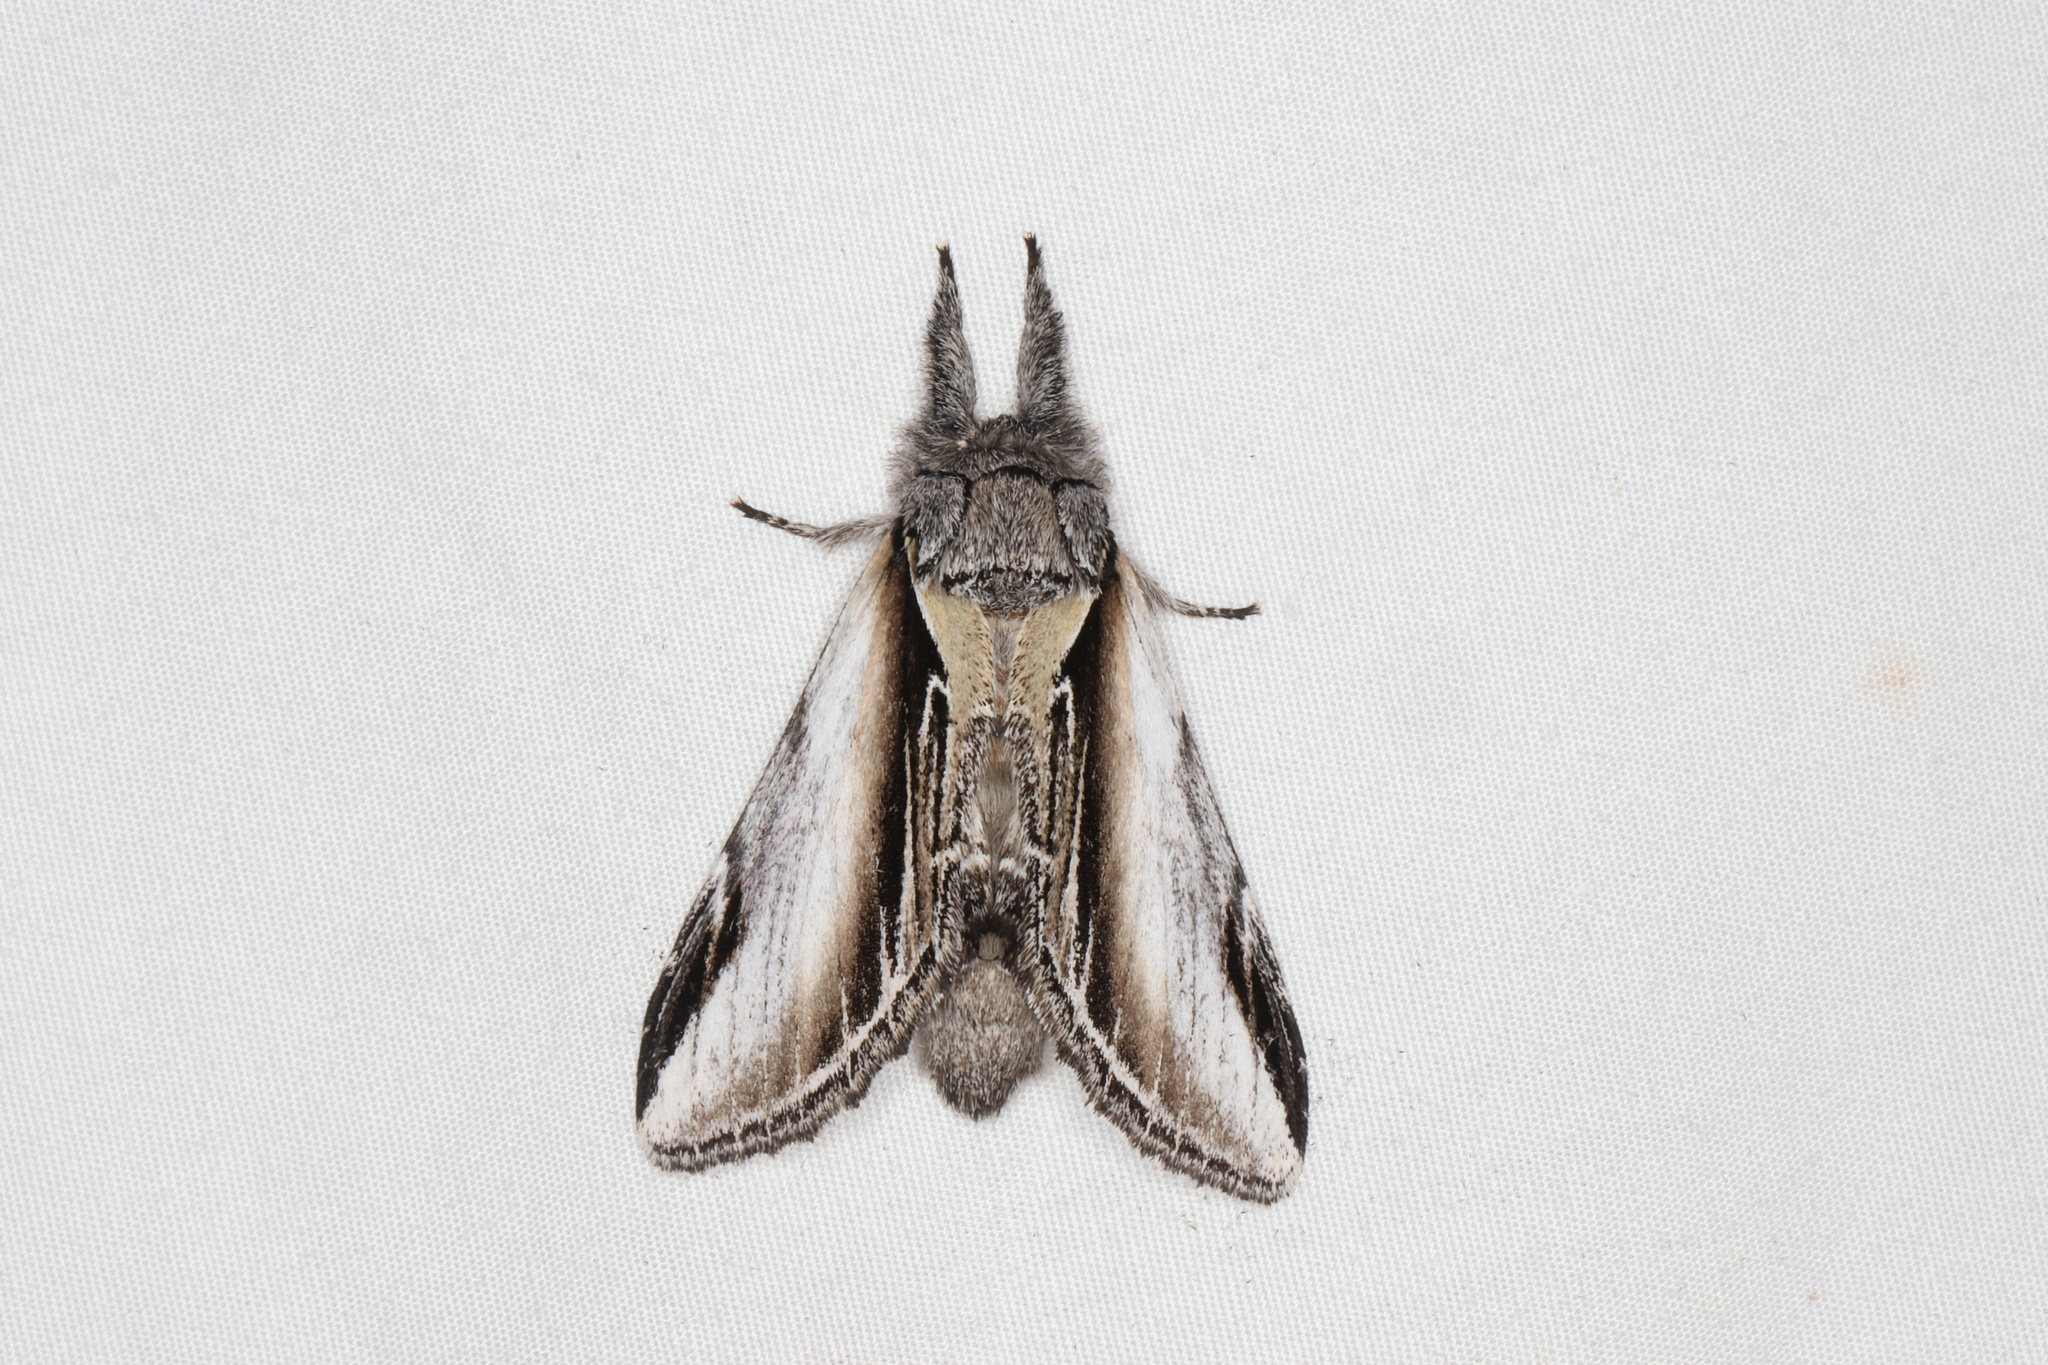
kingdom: Animalia
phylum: Arthropoda
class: Insecta
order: Lepidoptera
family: Notodontidae
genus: Pheosia
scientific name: Pheosia rimosa
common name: Black-rimmed prominent
